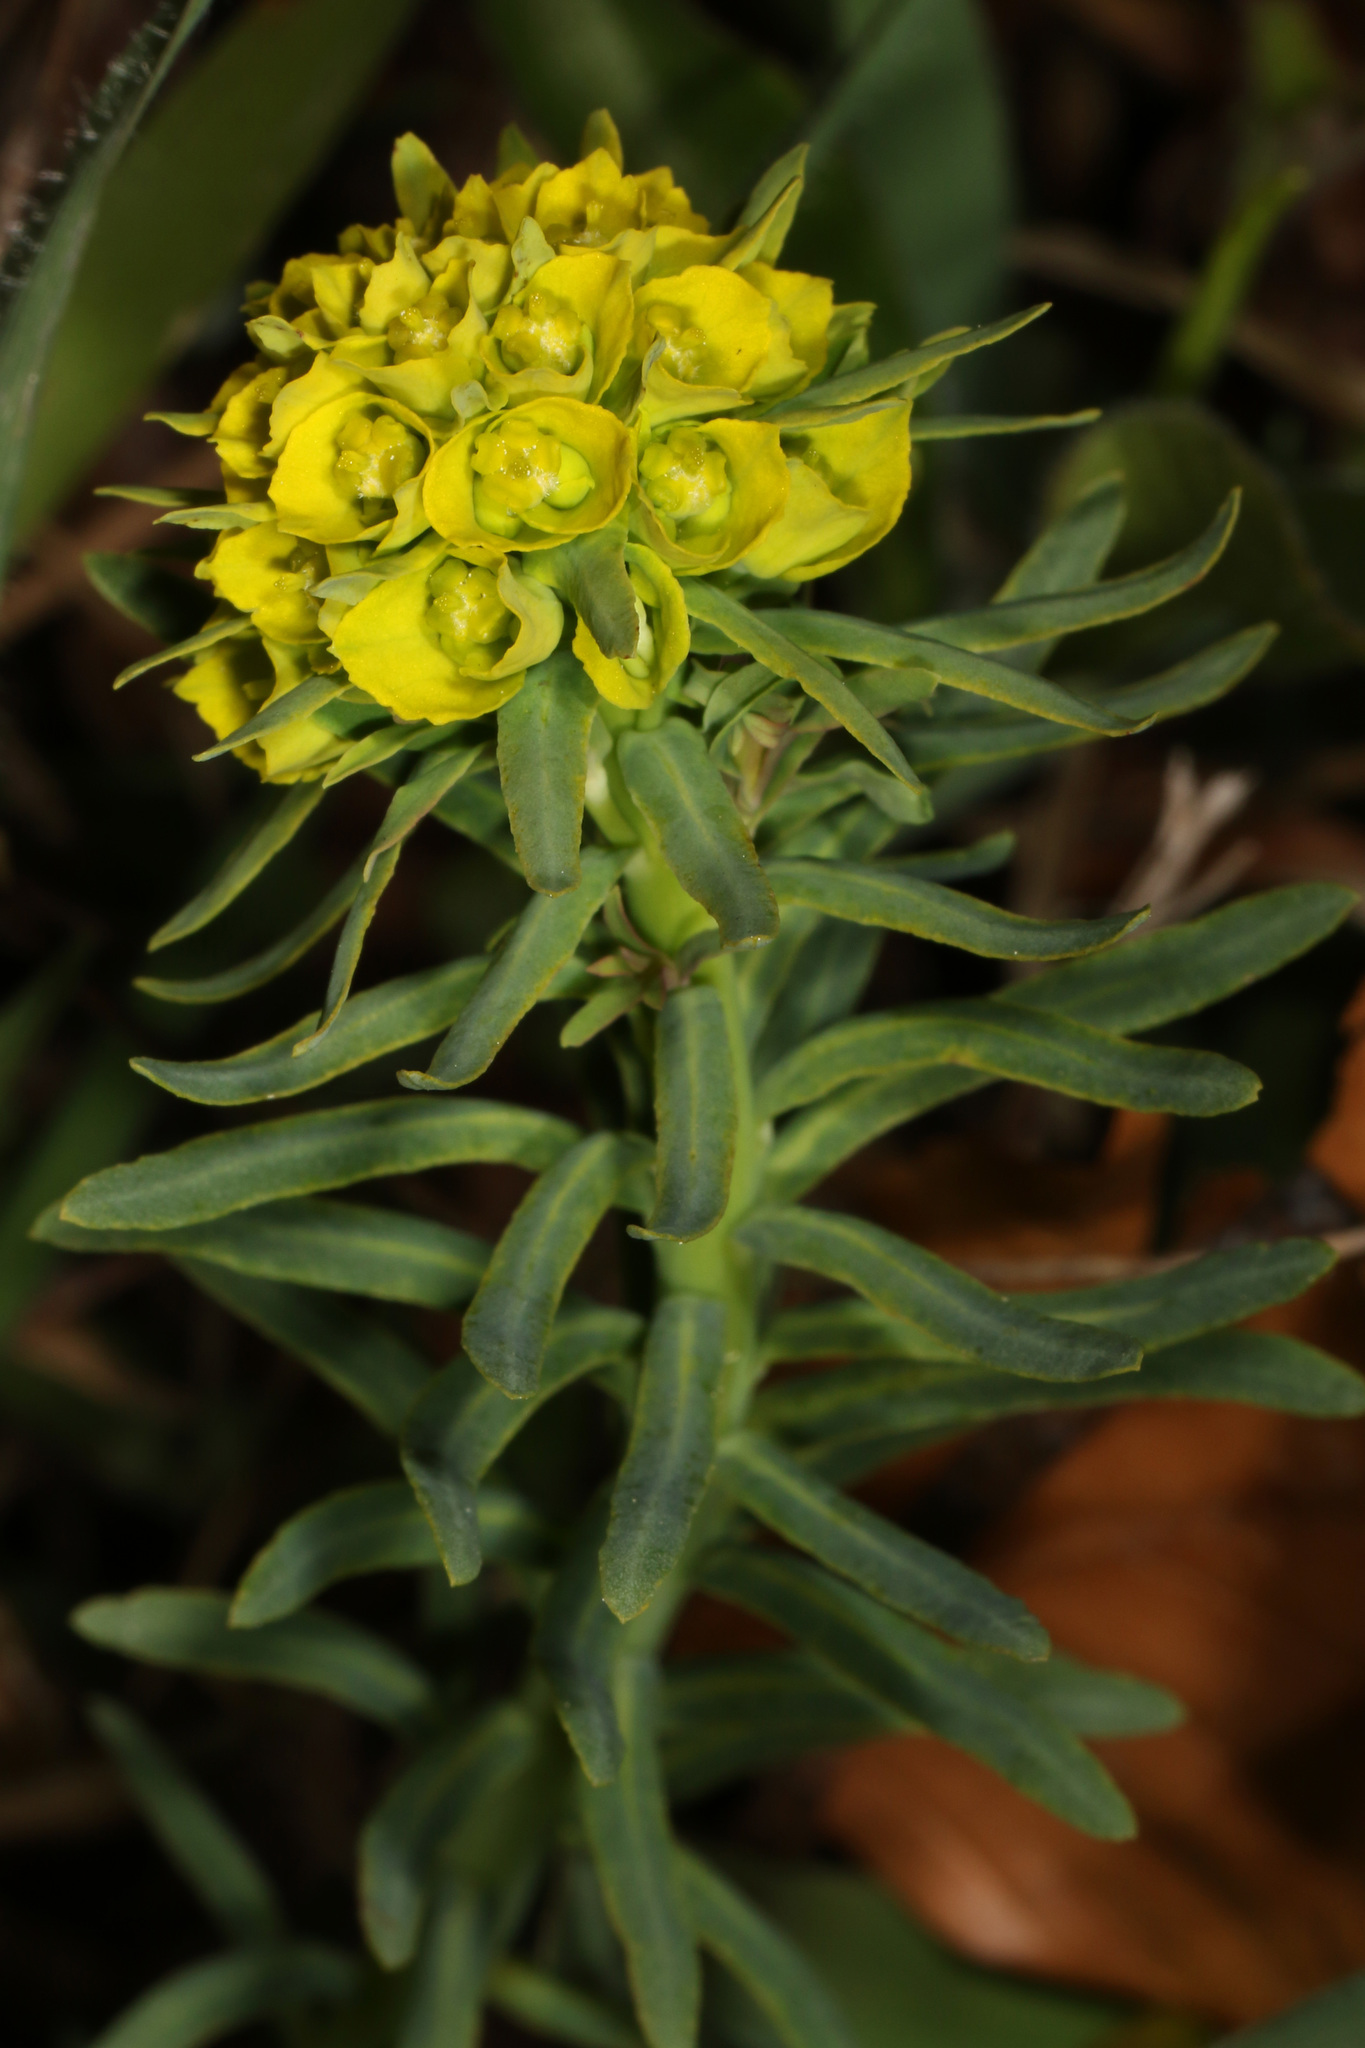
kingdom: Plantae
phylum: Tracheophyta
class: Magnoliopsida
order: Malpighiales
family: Euphorbiaceae
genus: Euphorbia
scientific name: Euphorbia cyparissias
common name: Cypress spurge
